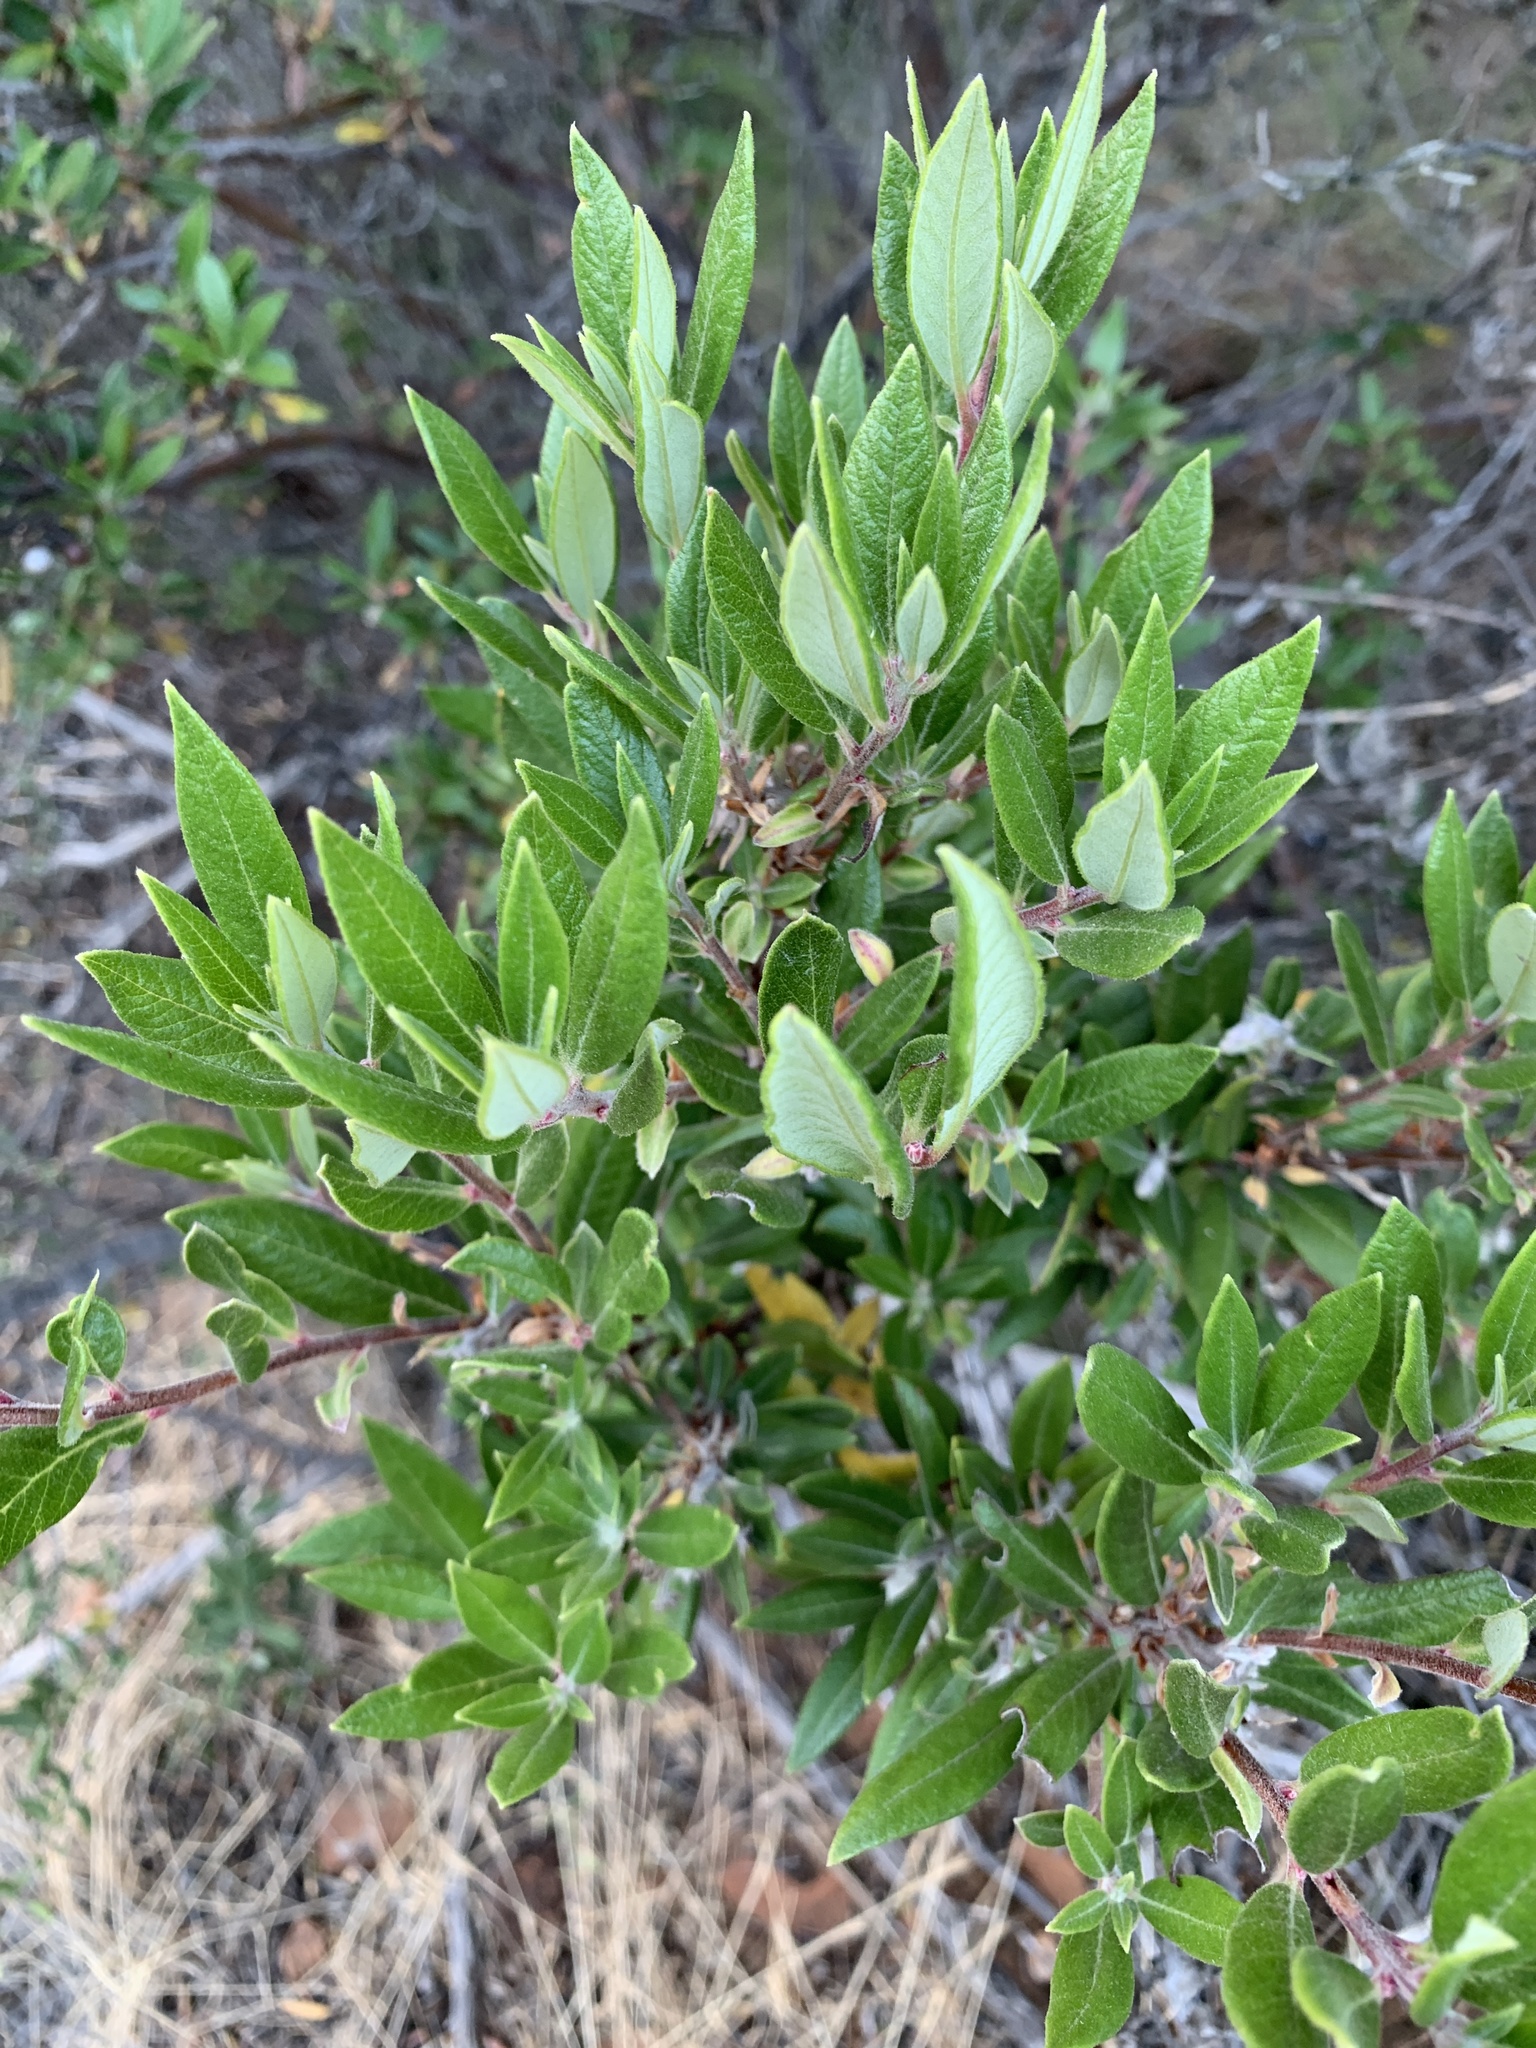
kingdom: Plantae
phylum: Tracheophyta
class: Magnoliopsida
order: Ericales
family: Ericaceae
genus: Arctostaphylos
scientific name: Arctostaphylos bicolor
